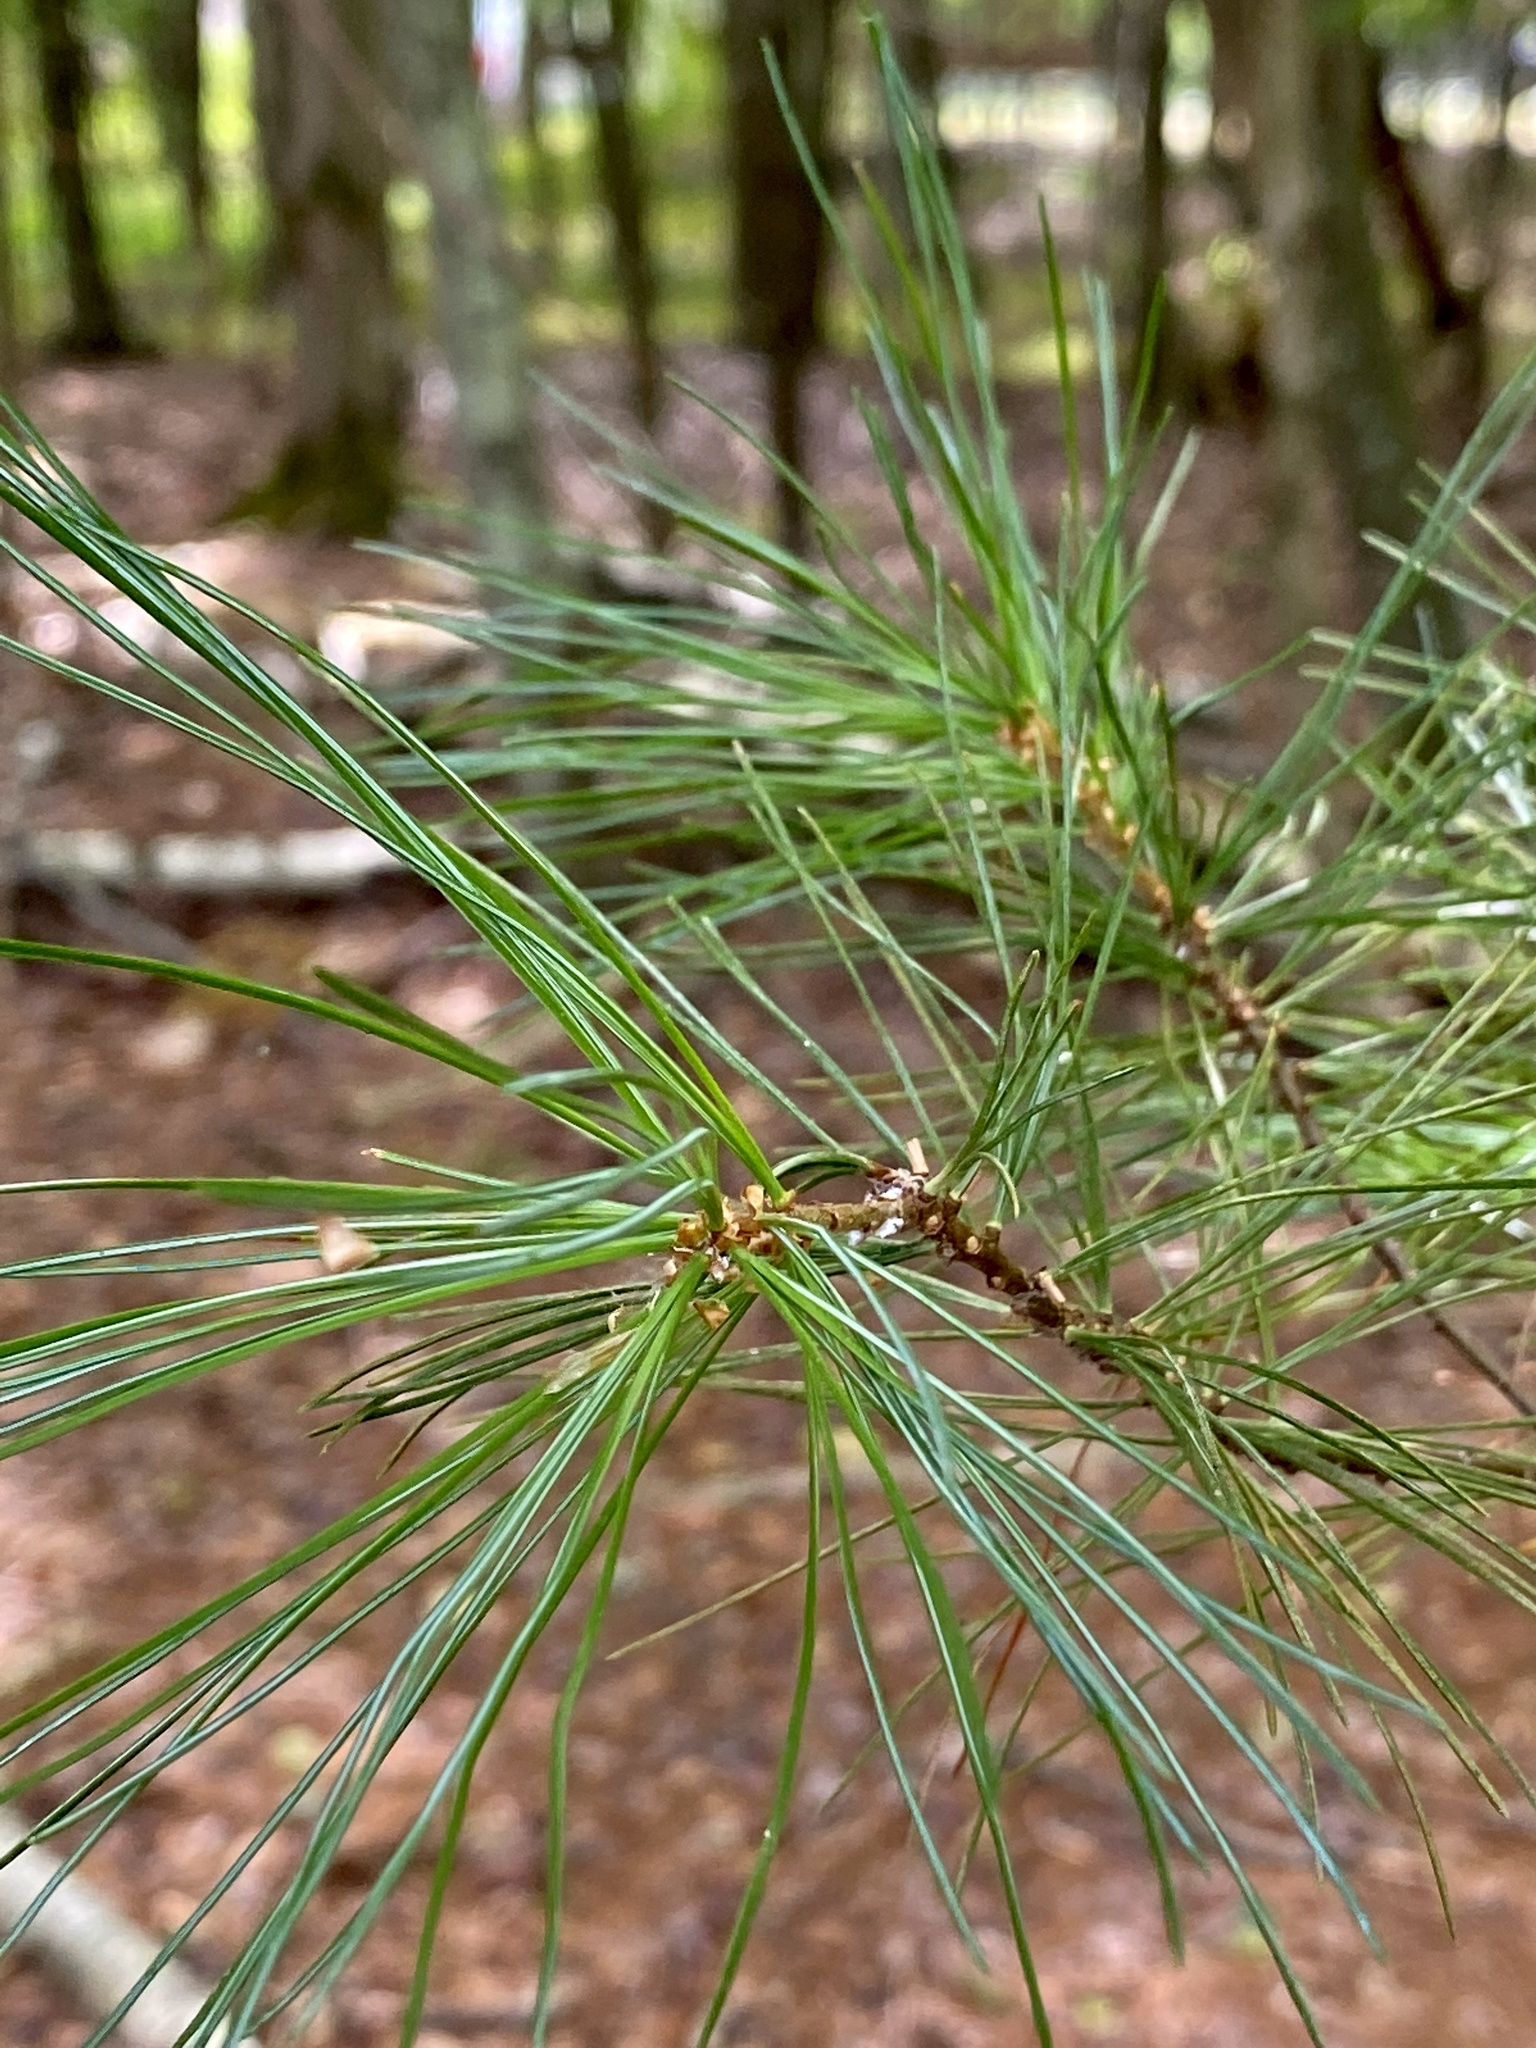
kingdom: Plantae
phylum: Tracheophyta
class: Pinopsida
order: Pinales
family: Pinaceae
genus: Pinus
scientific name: Pinus strobus
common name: Weymouth pine
